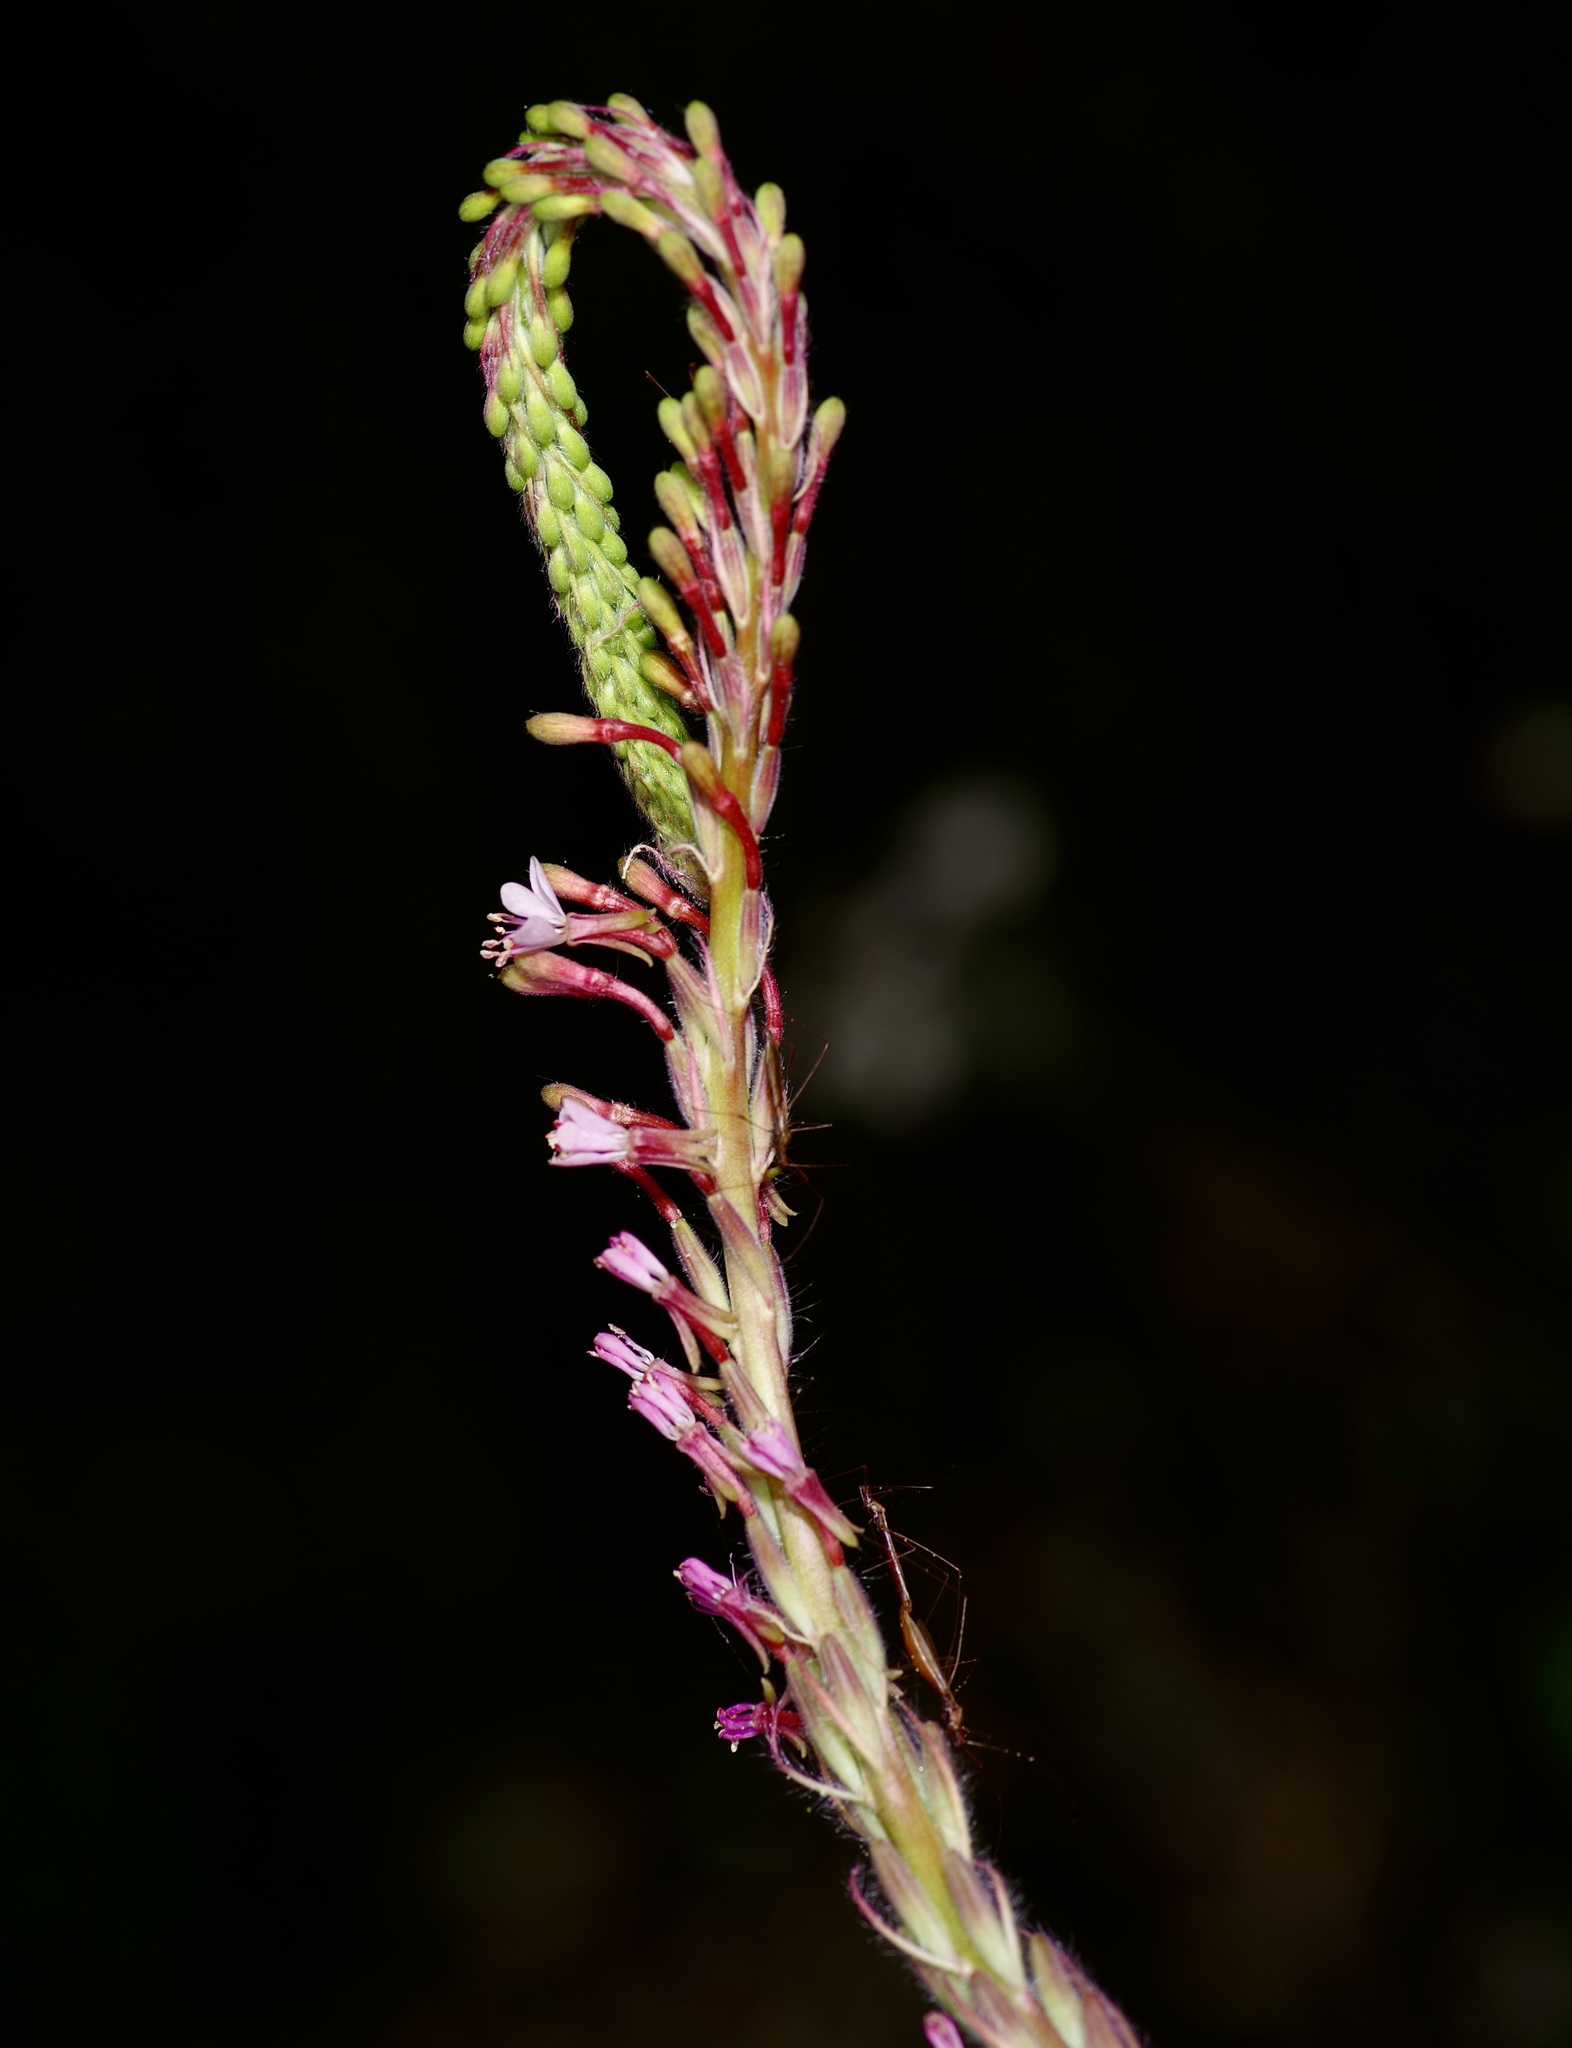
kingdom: Plantae
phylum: Tracheophyta
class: Magnoliopsida
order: Myrtales
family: Onagraceae
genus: Oenothera
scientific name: Oenothera curtiflora
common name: Velvetweed
